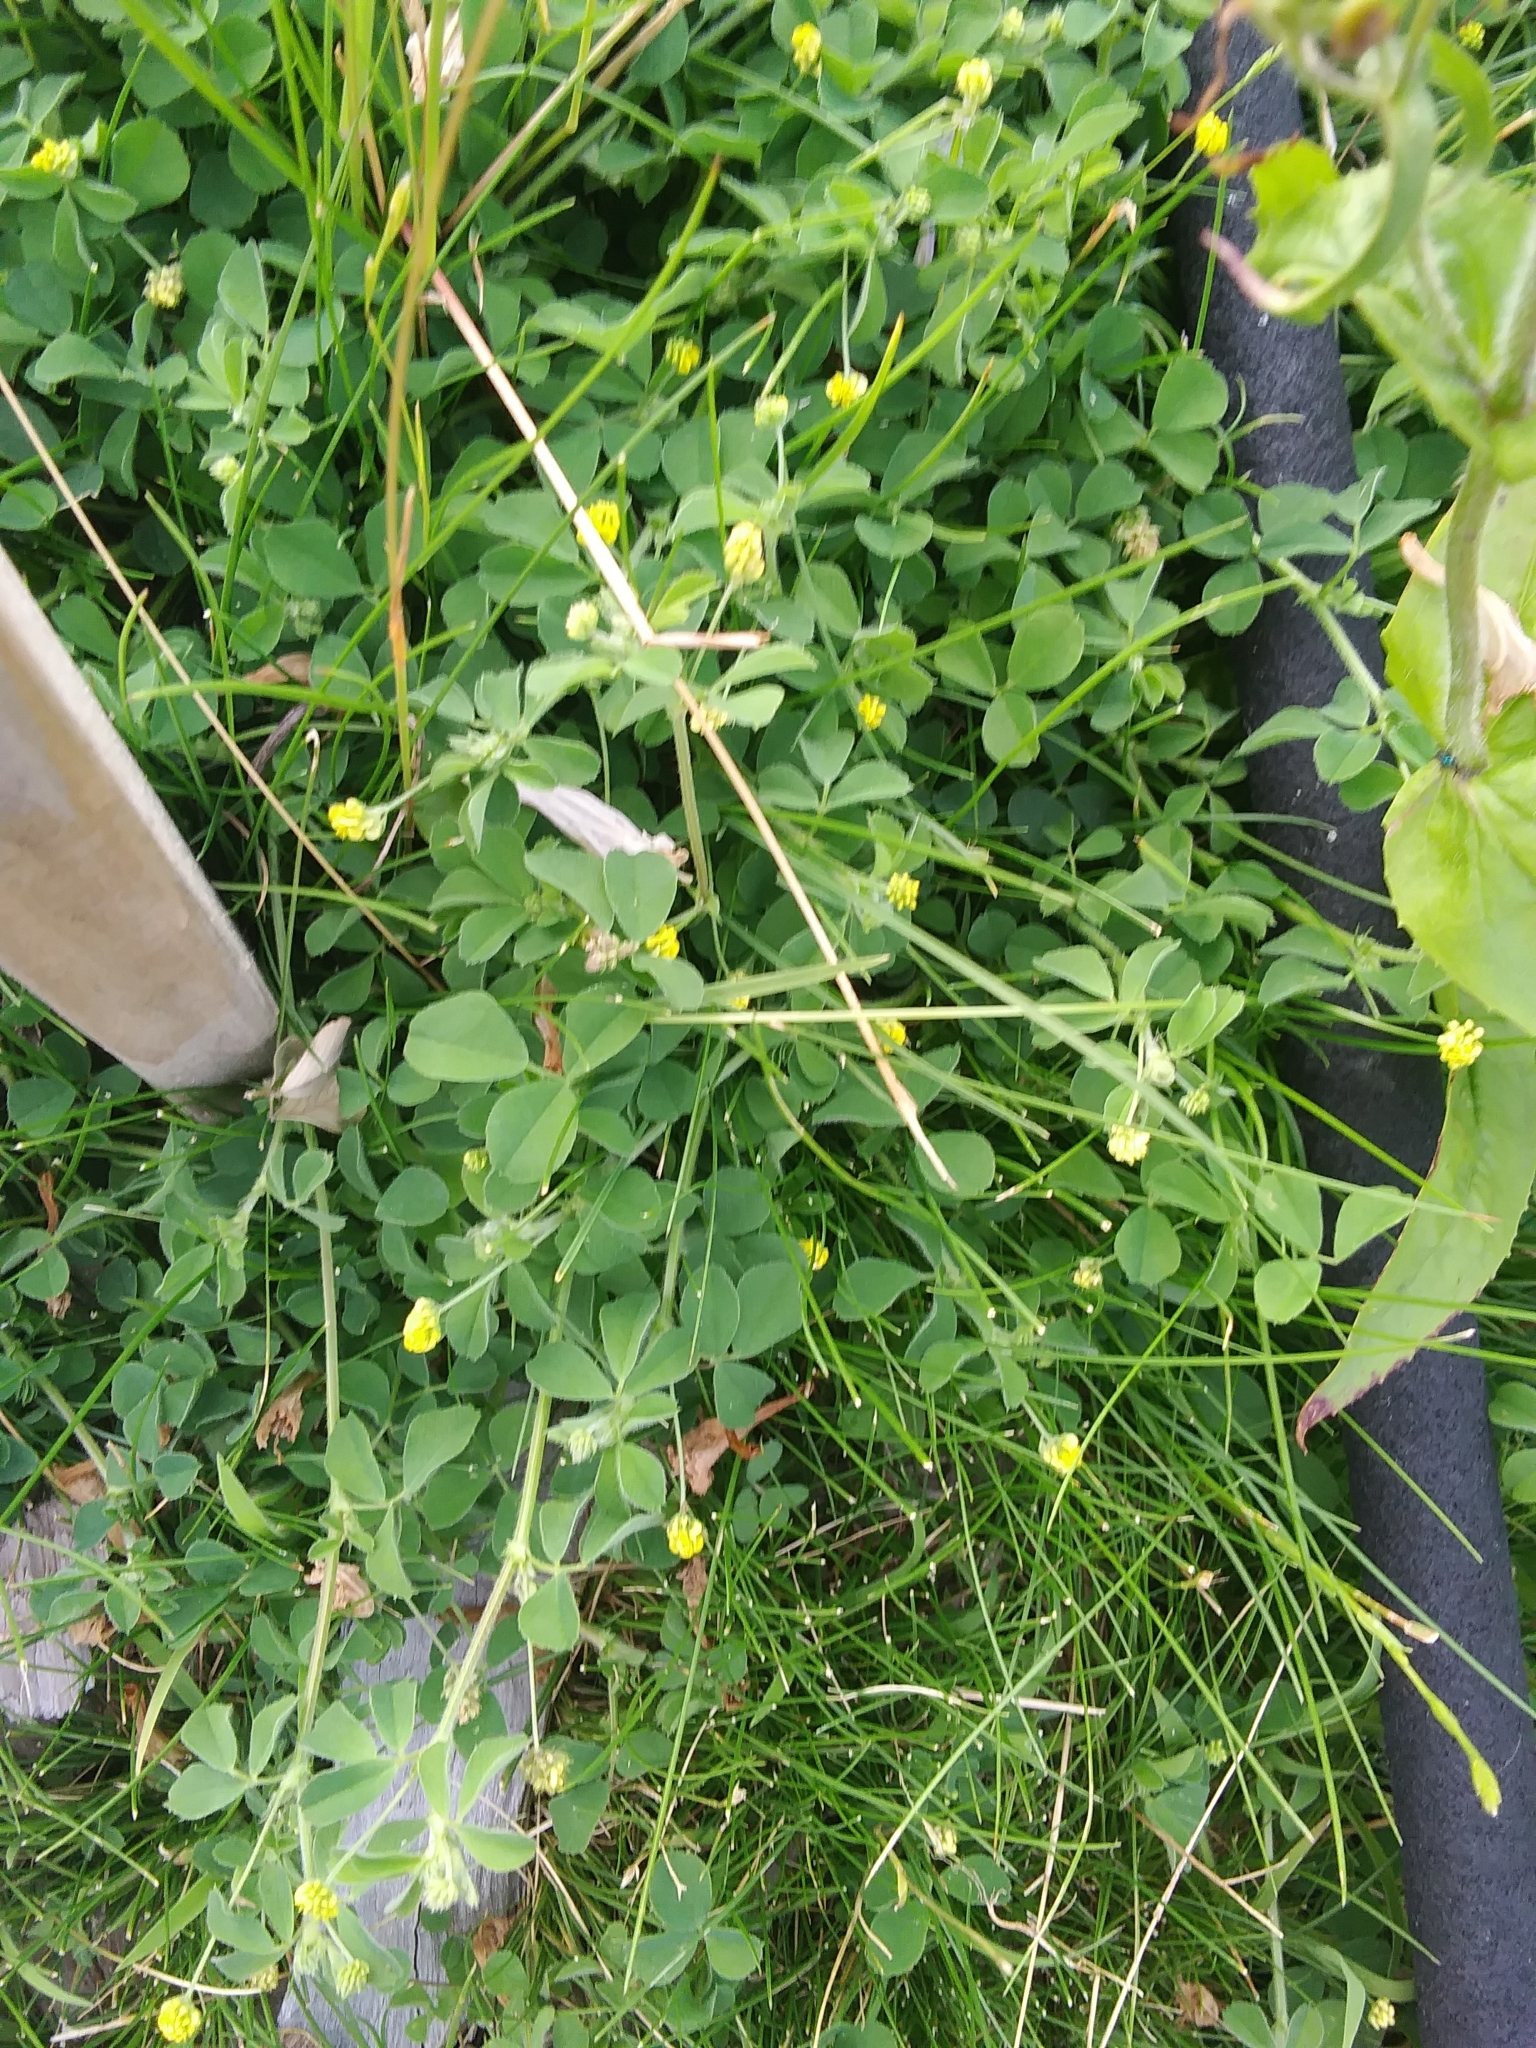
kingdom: Plantae
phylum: Tracheophyta
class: Magnoliopsida
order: Fabales
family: Fabaceae
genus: Medicago
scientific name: Medicago lupulina
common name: Black medick
